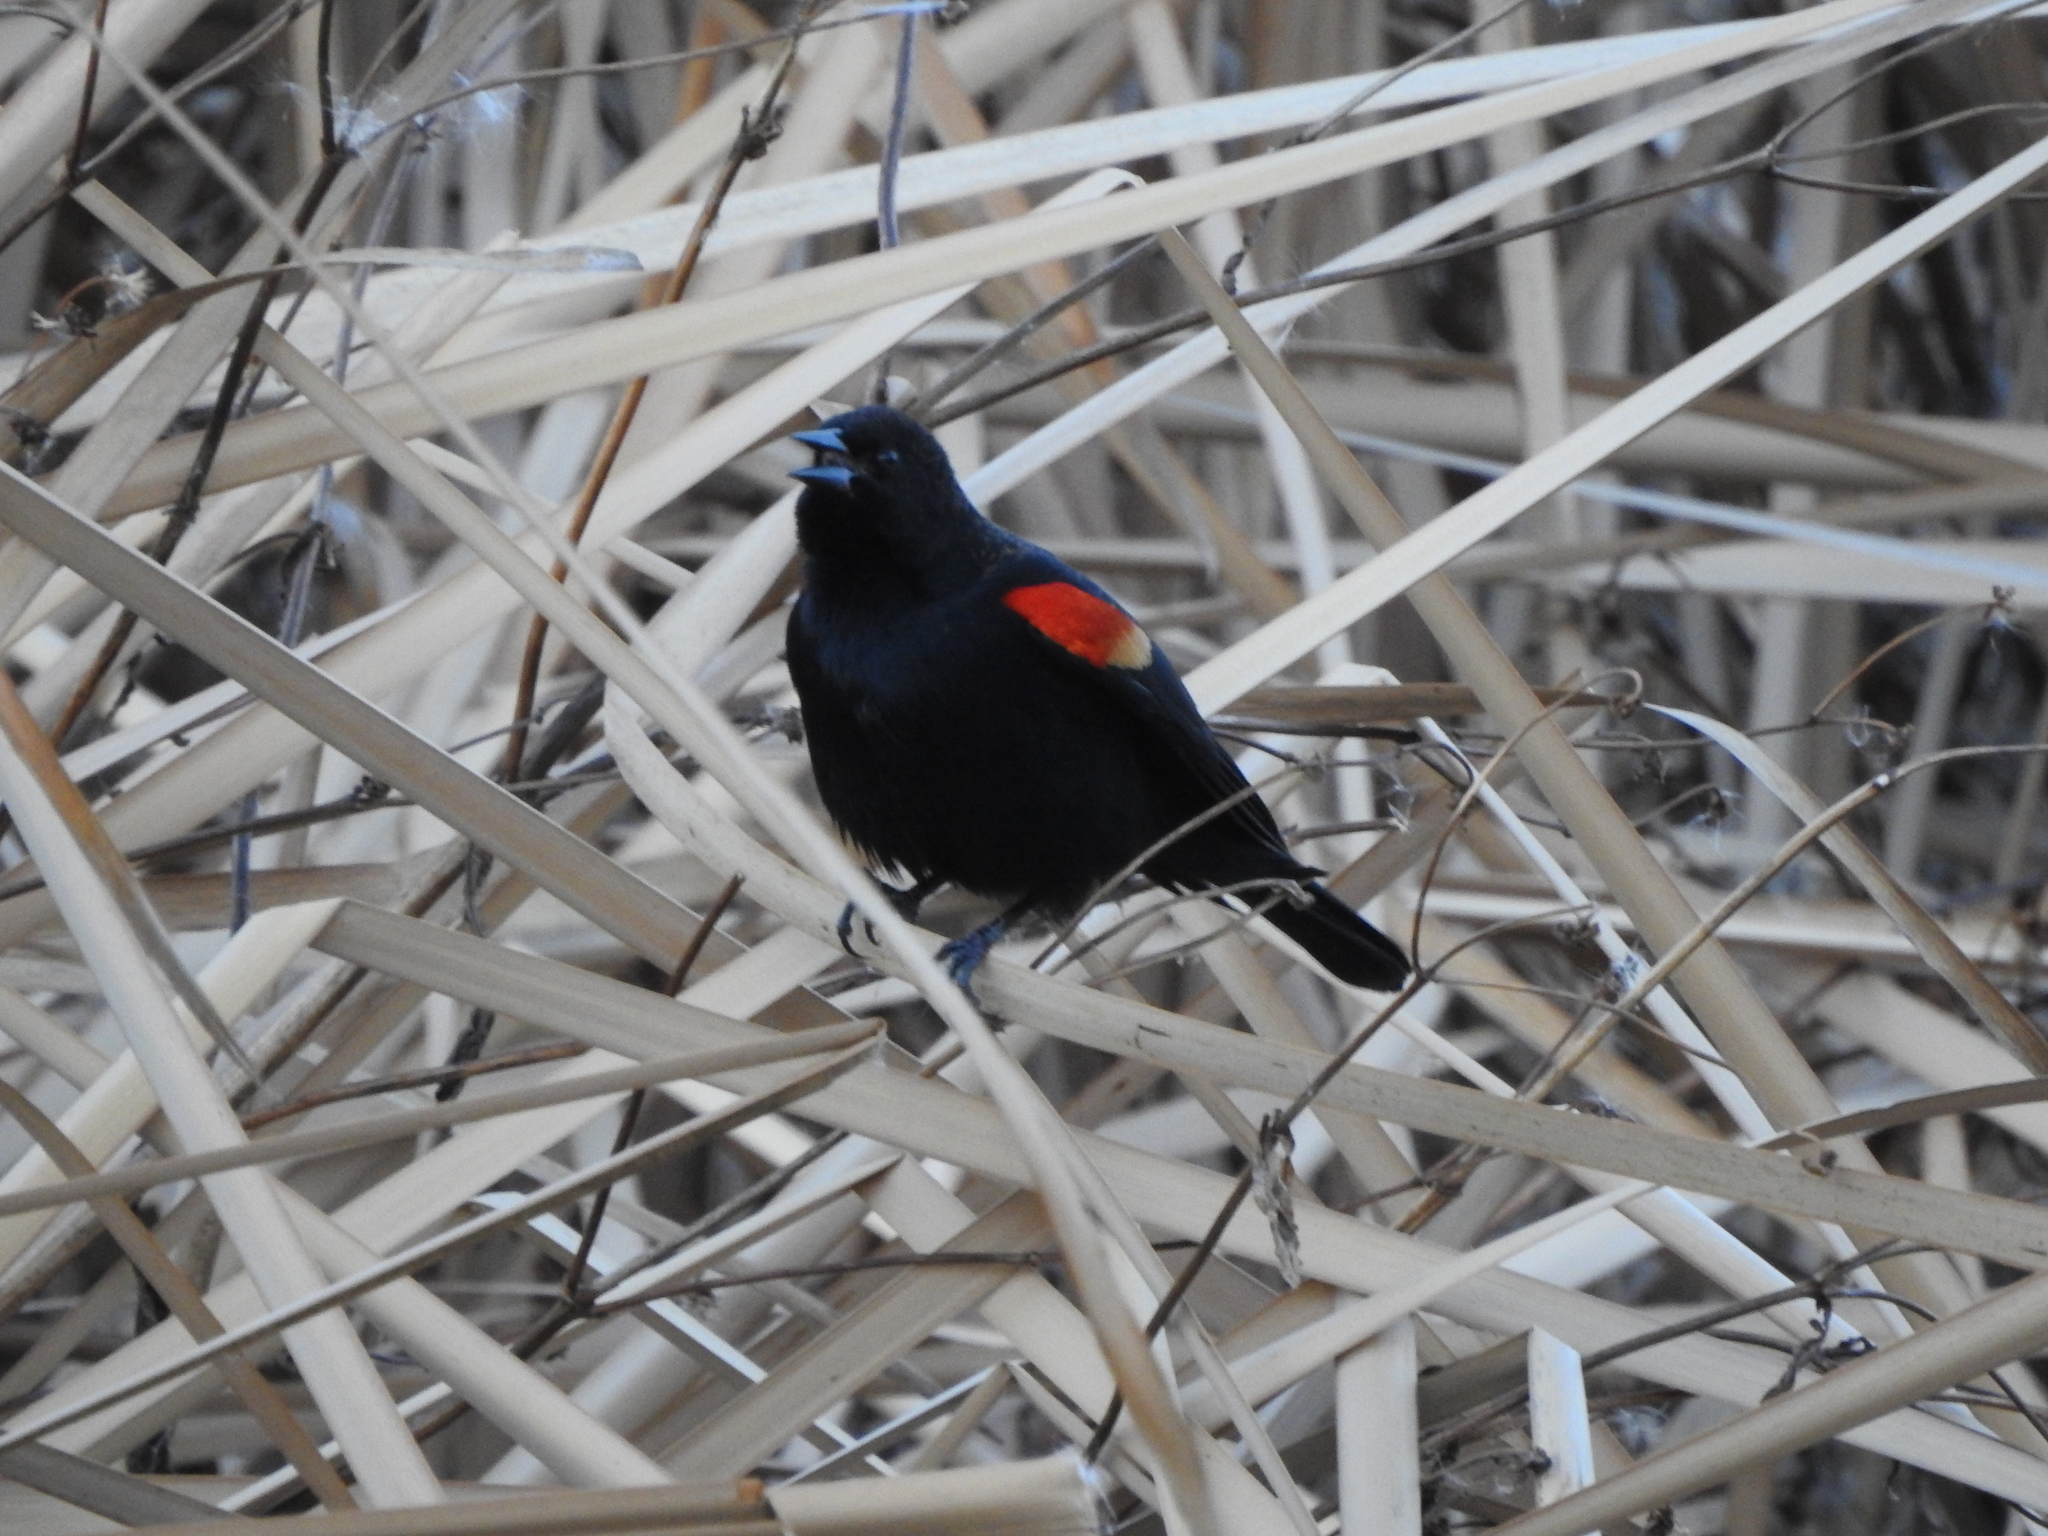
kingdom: Animalia
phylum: Chordata
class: Aves
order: Passeriformes
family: Icteridae
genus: Agelaius
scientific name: Agelaius phoeniceus
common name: Red-winged blackbird
